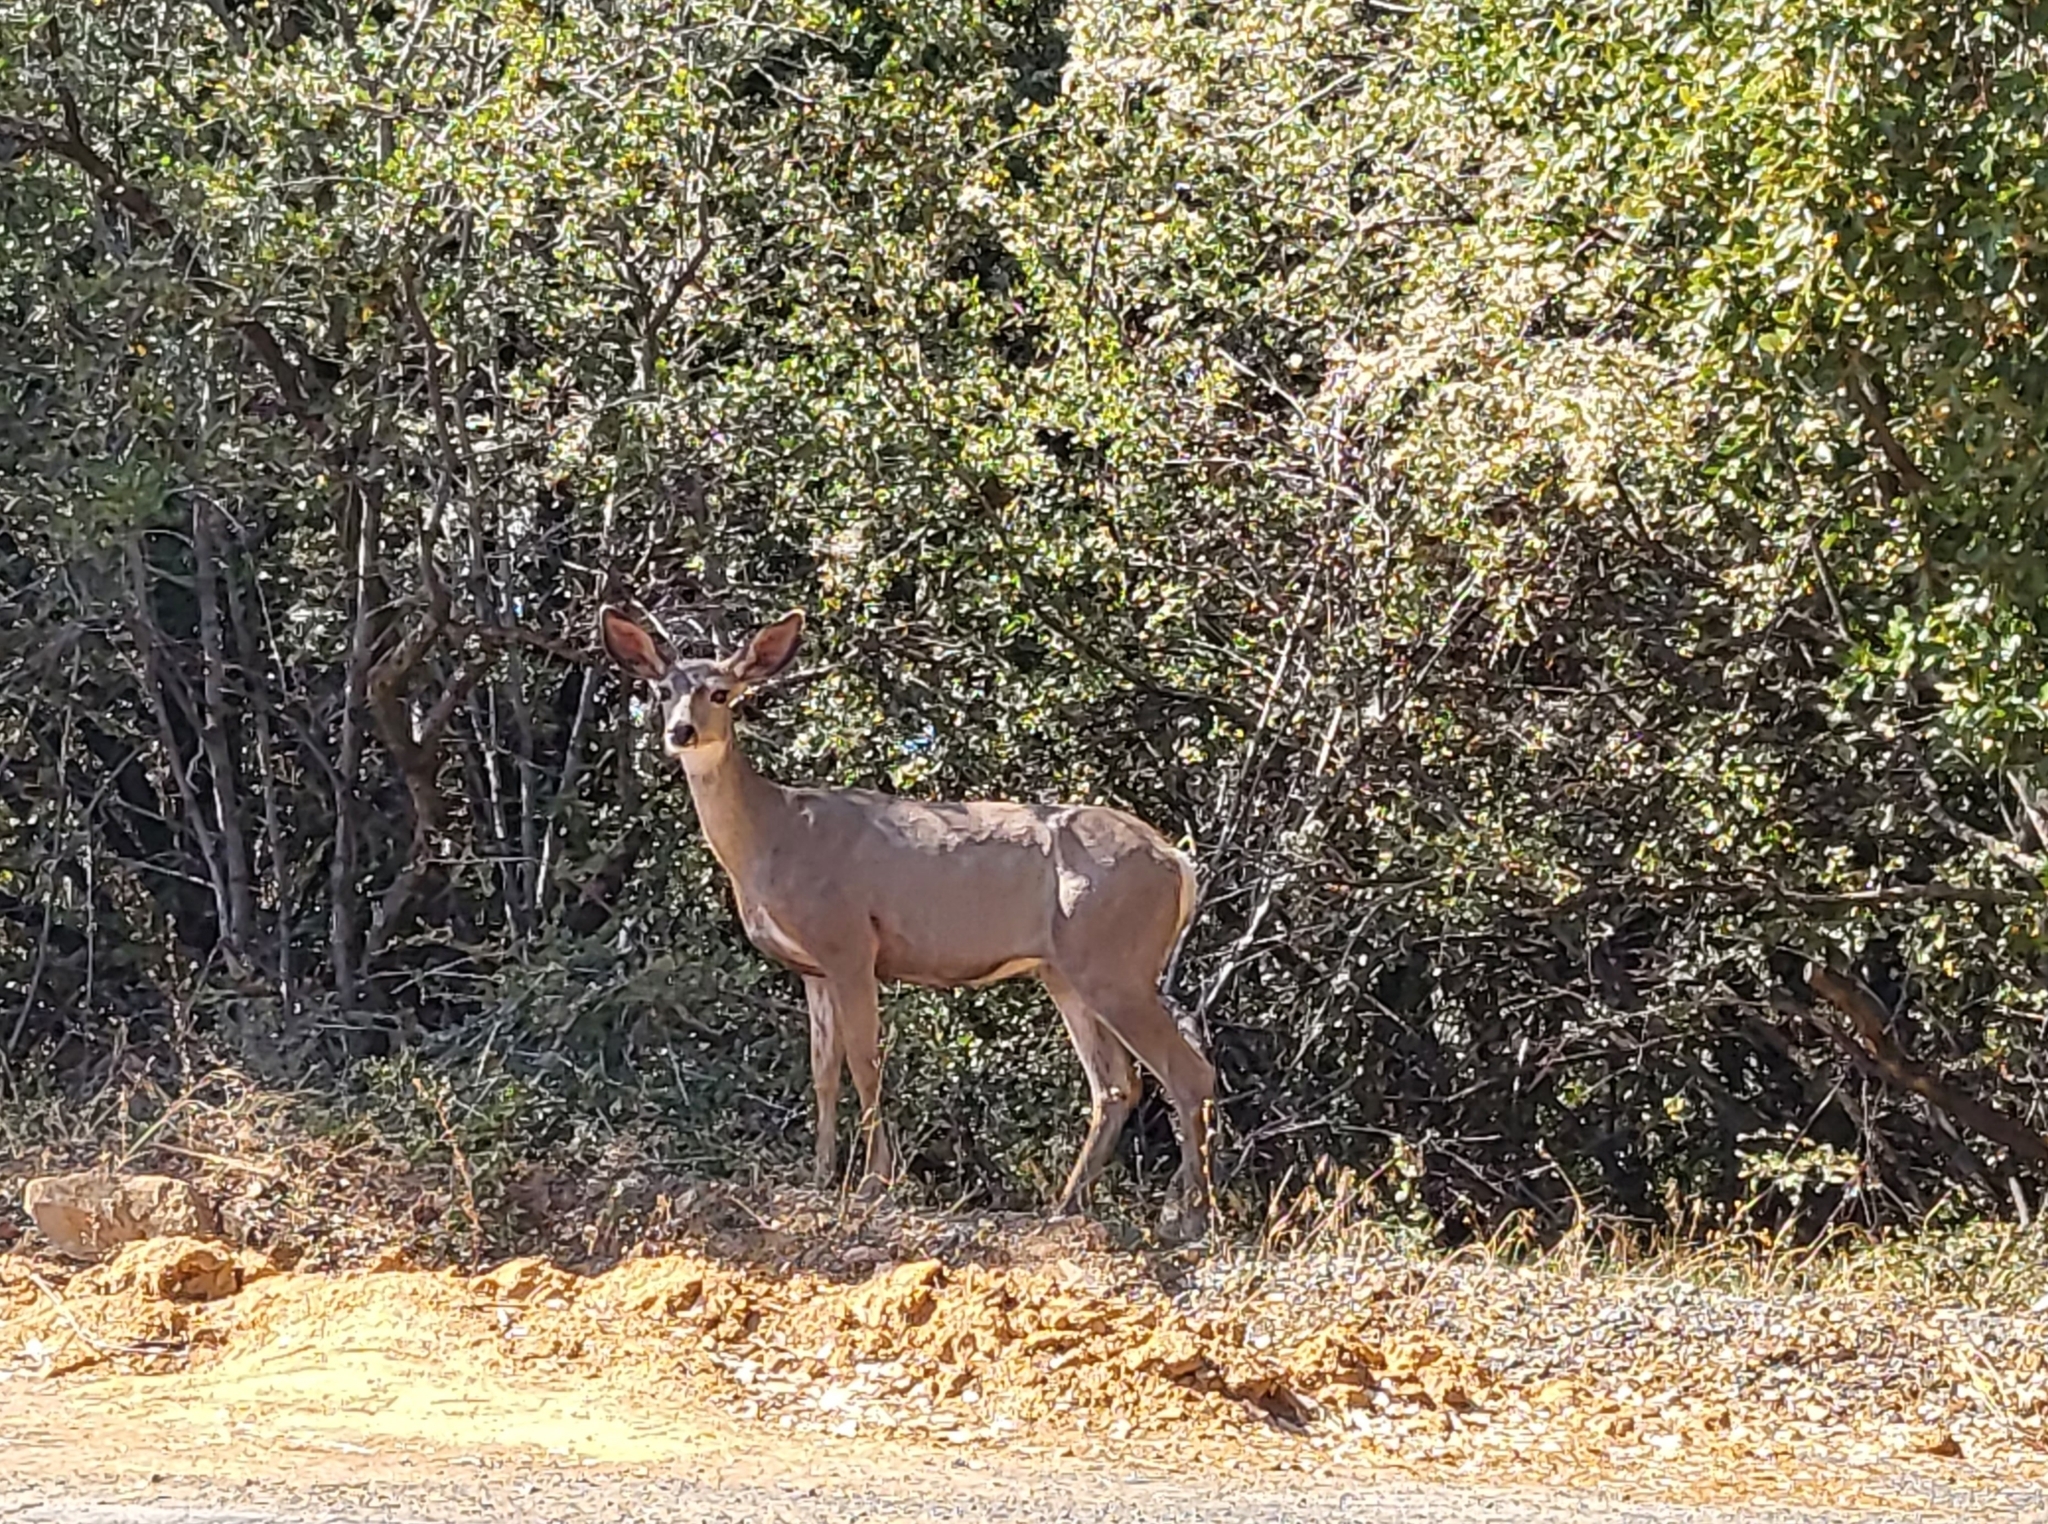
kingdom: Animalia
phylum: Chordata
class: Mammalia
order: Artiodactyla
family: Cervidae
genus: Odocoileus
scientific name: Odocoileus hemionus
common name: Mule deer
